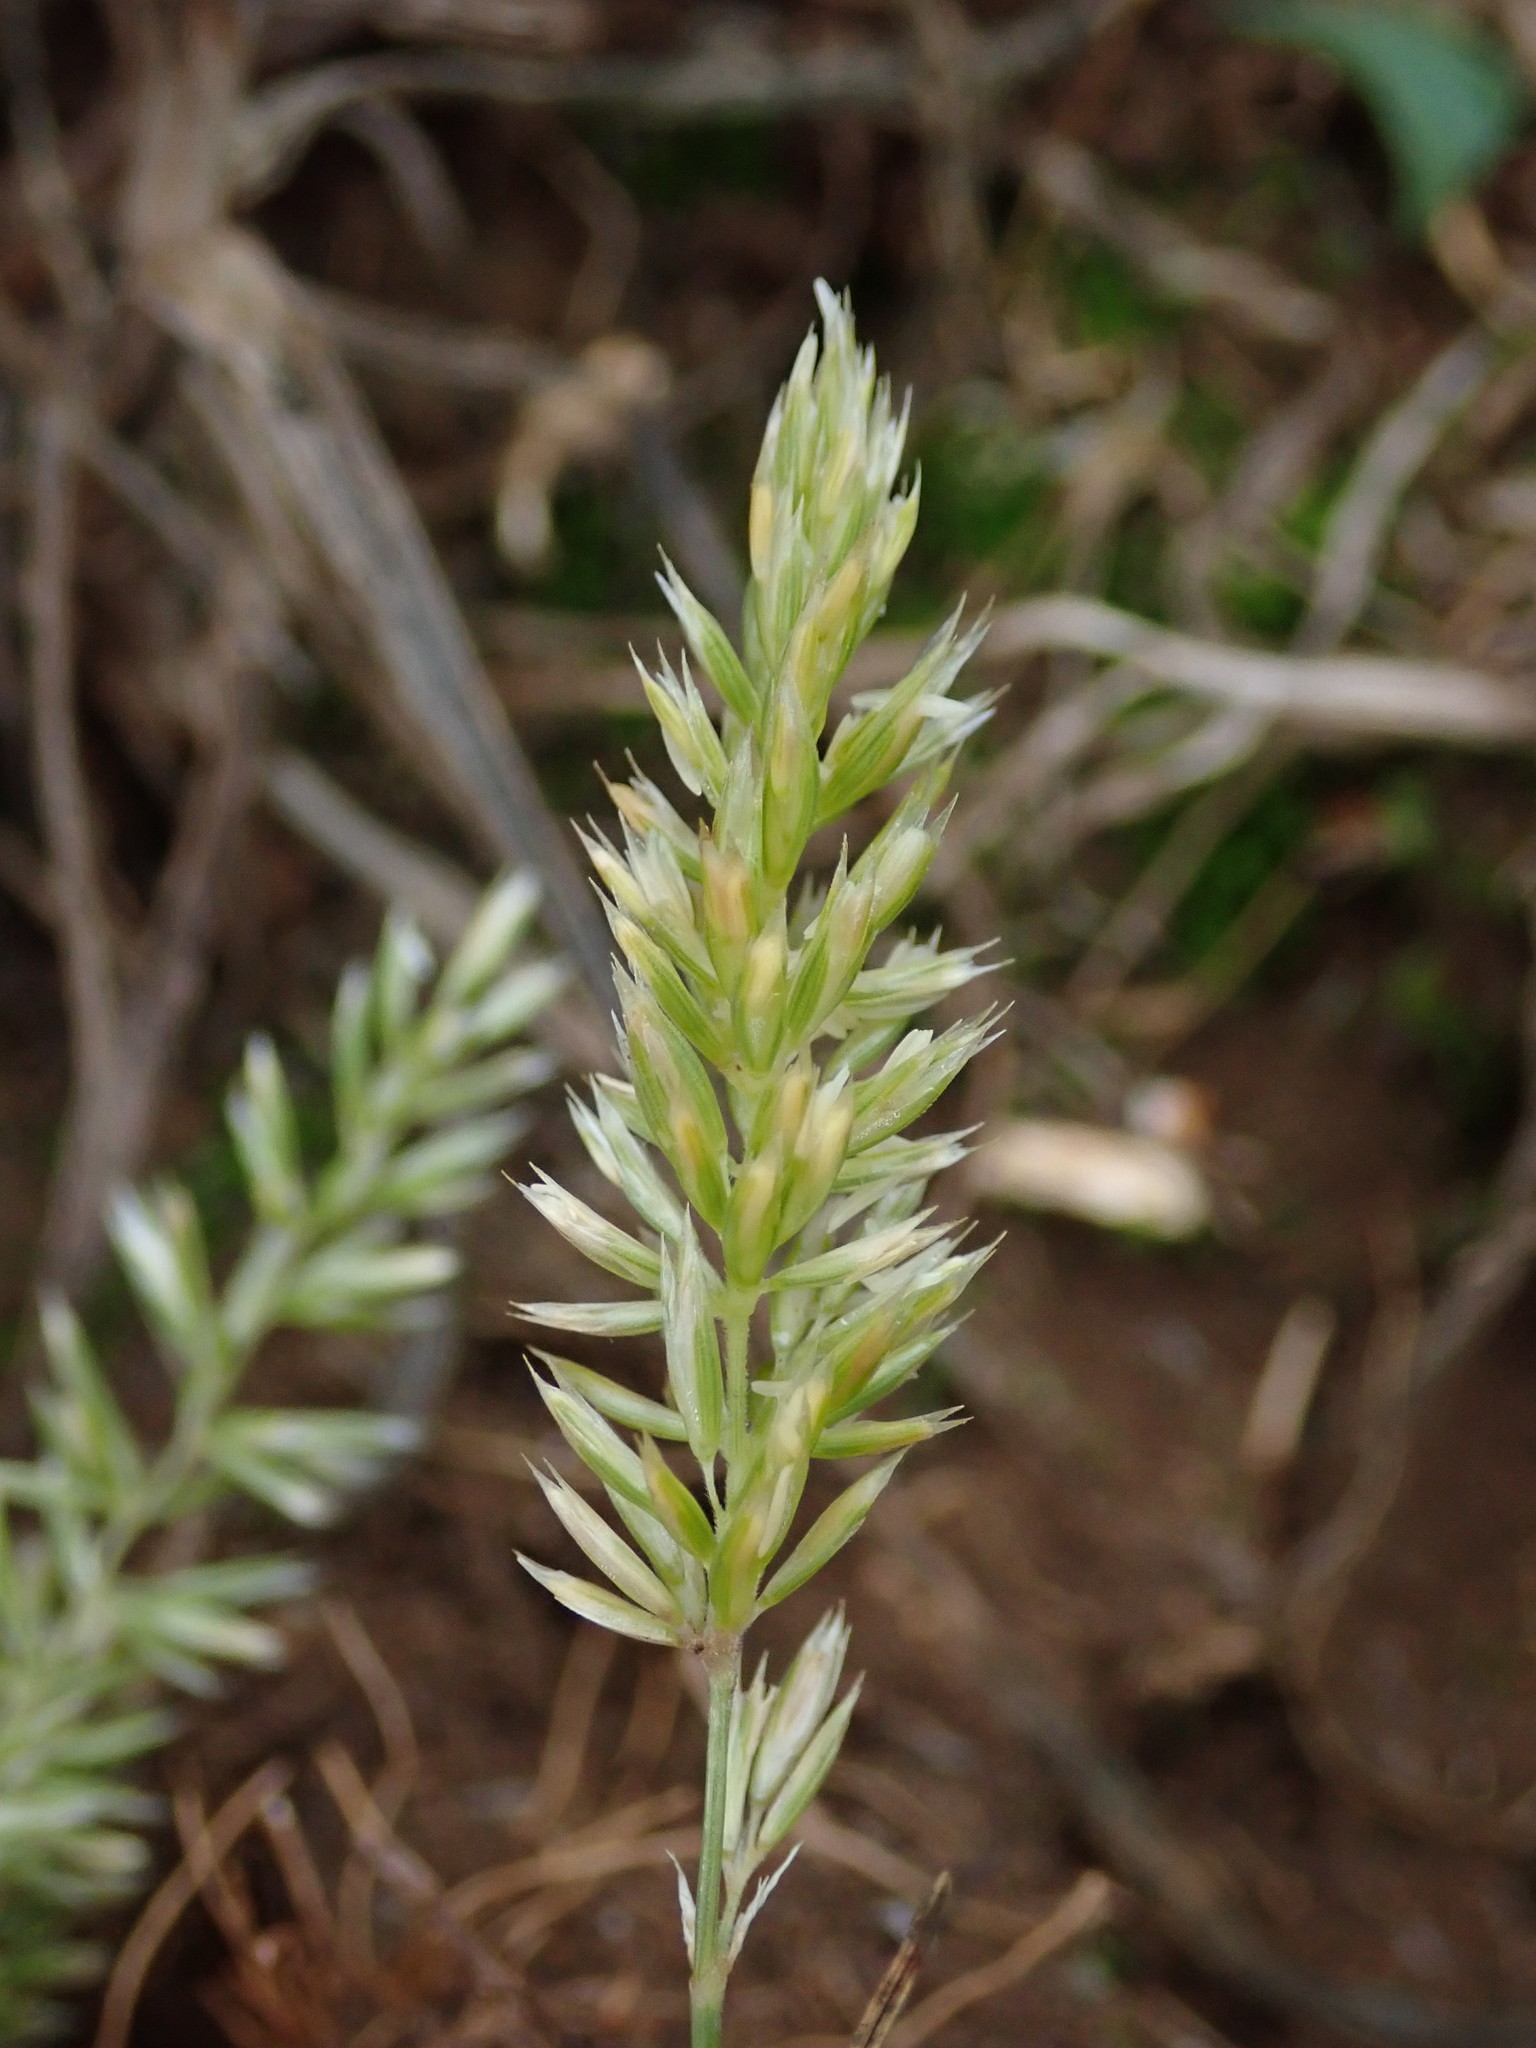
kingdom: Plantae
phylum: Tracheophyta
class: Liliopsida
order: Poales
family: Poaceae
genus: Koeleria
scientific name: Koeleria macrantha
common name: Crested hair-grass
